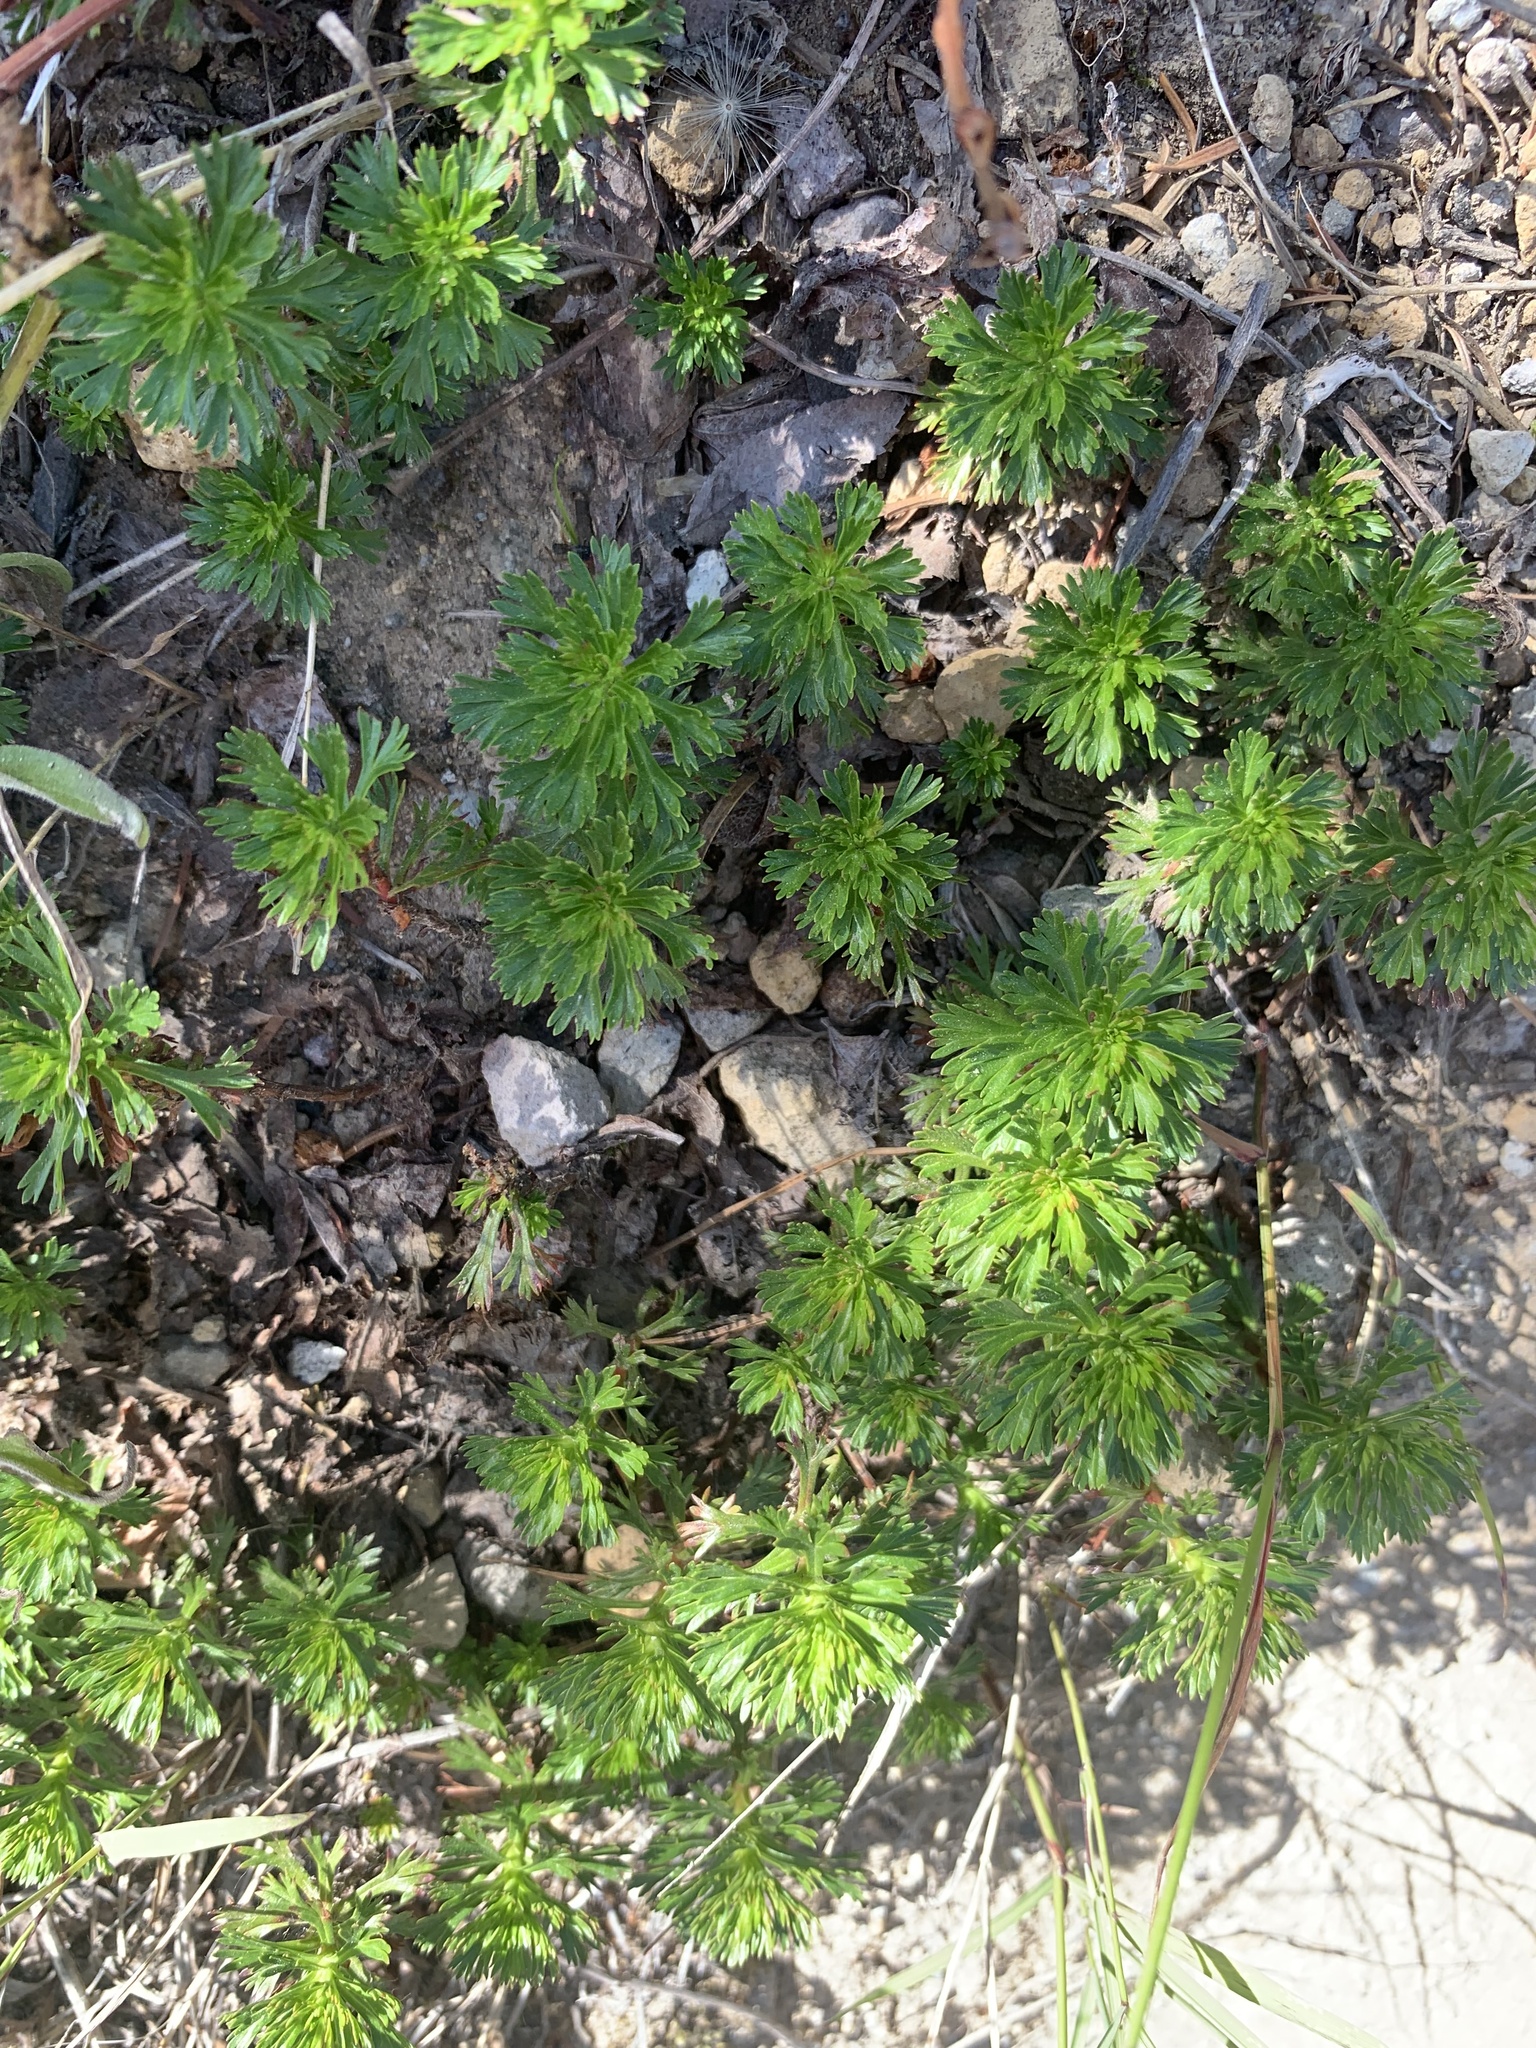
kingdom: Plantae
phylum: Tracheophyta
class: Magnoliopsida
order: Rosales
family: Rosaceae
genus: Luetkea
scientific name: Luetkea pectinata
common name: Partridgefoot
